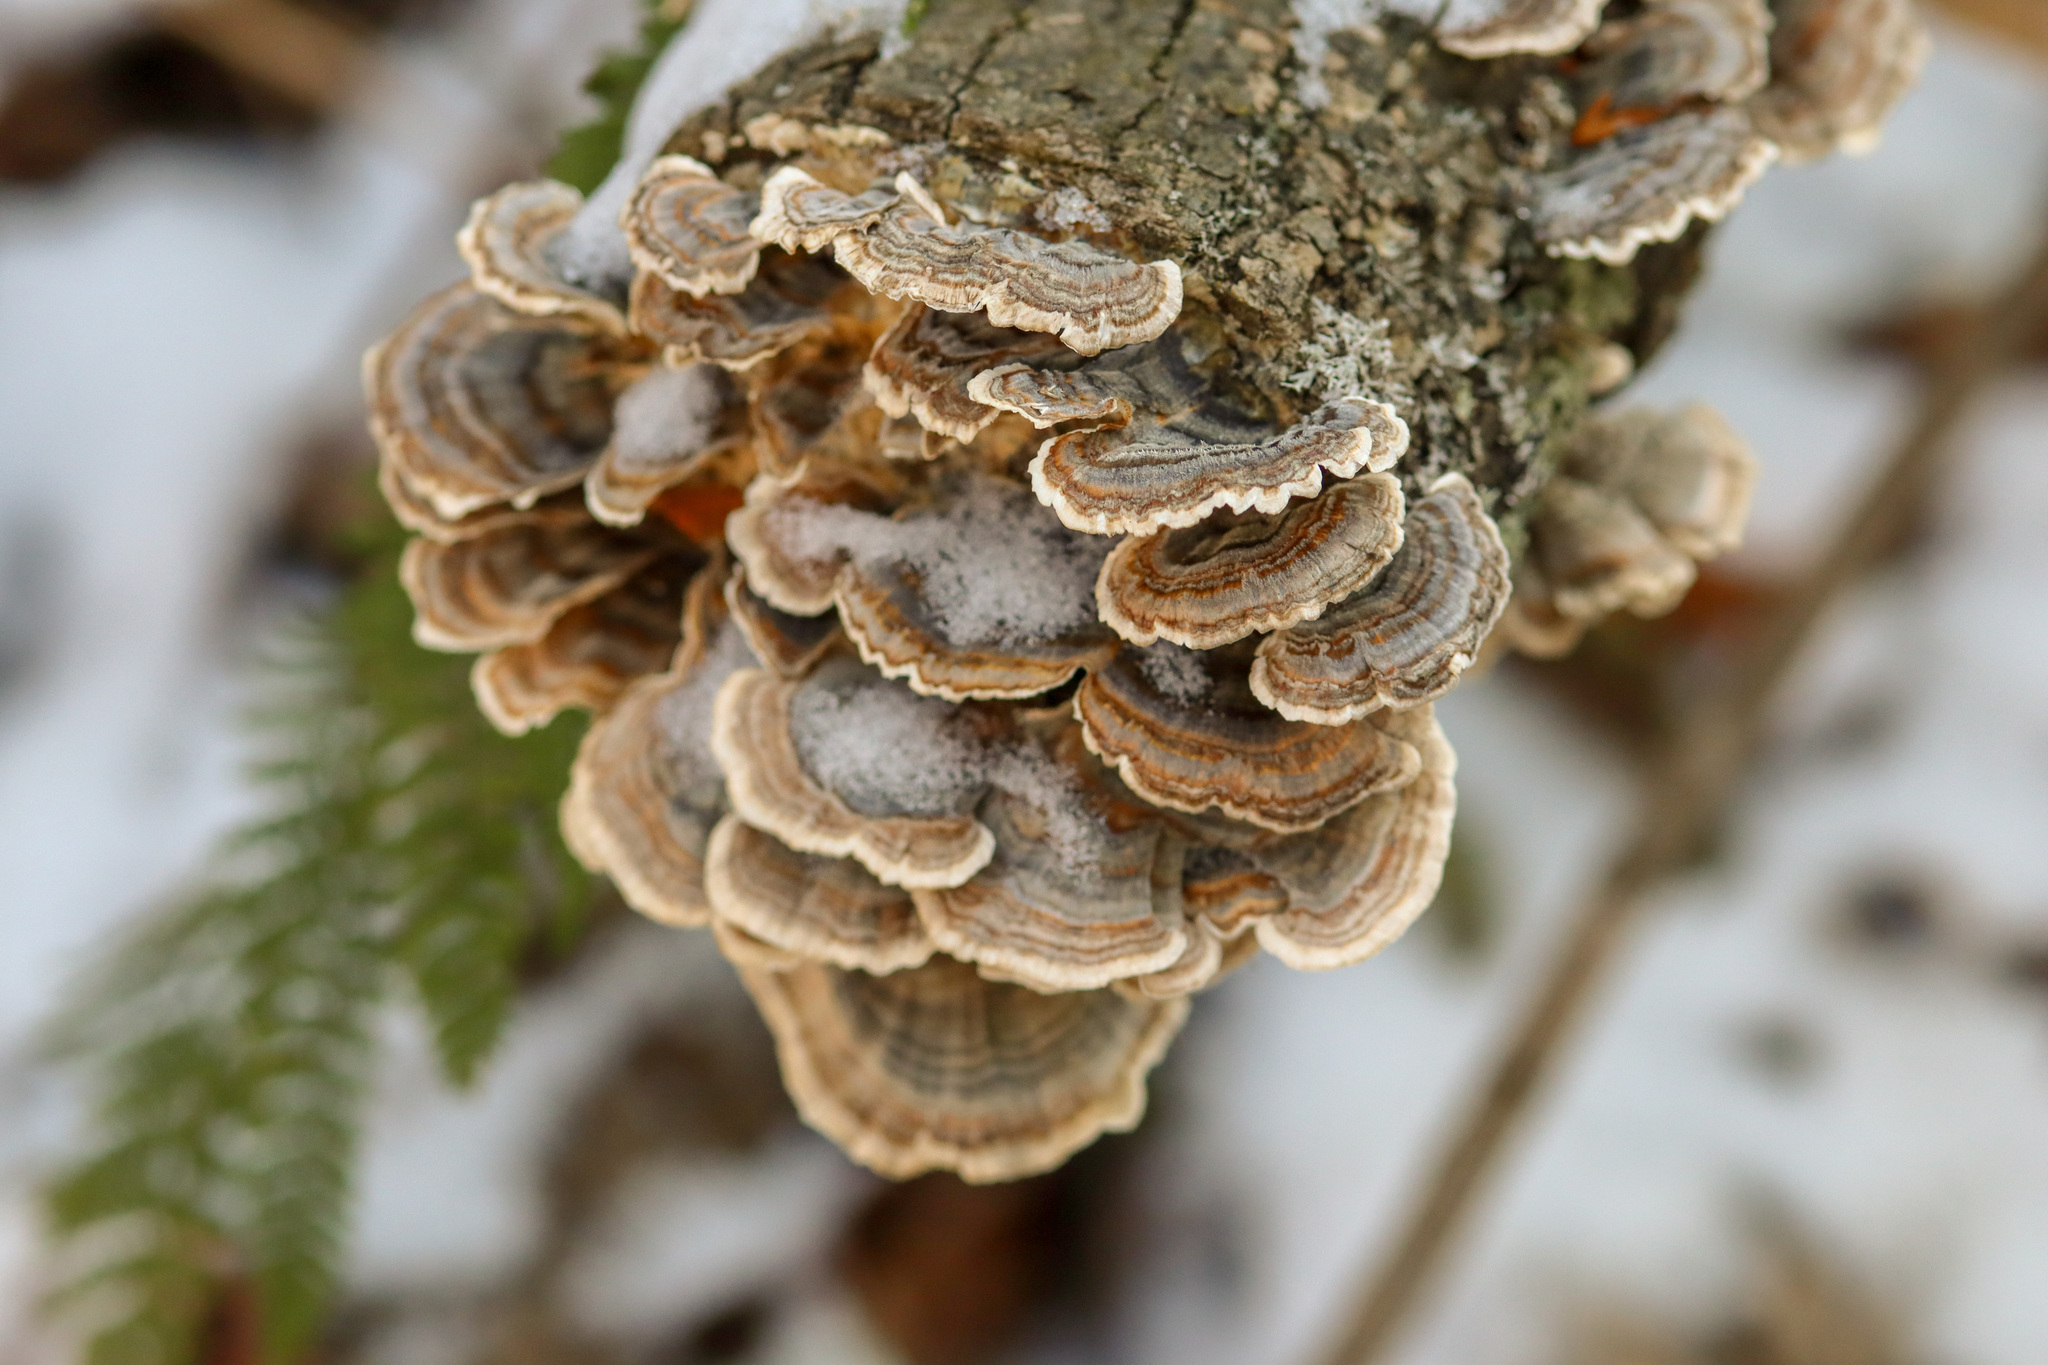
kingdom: Fungi
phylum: Basidiomycota
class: Agaricomycetes
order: Polyporales
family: Polyporaceae
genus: Trametes
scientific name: Trametes versicolor
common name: Turkeytail
